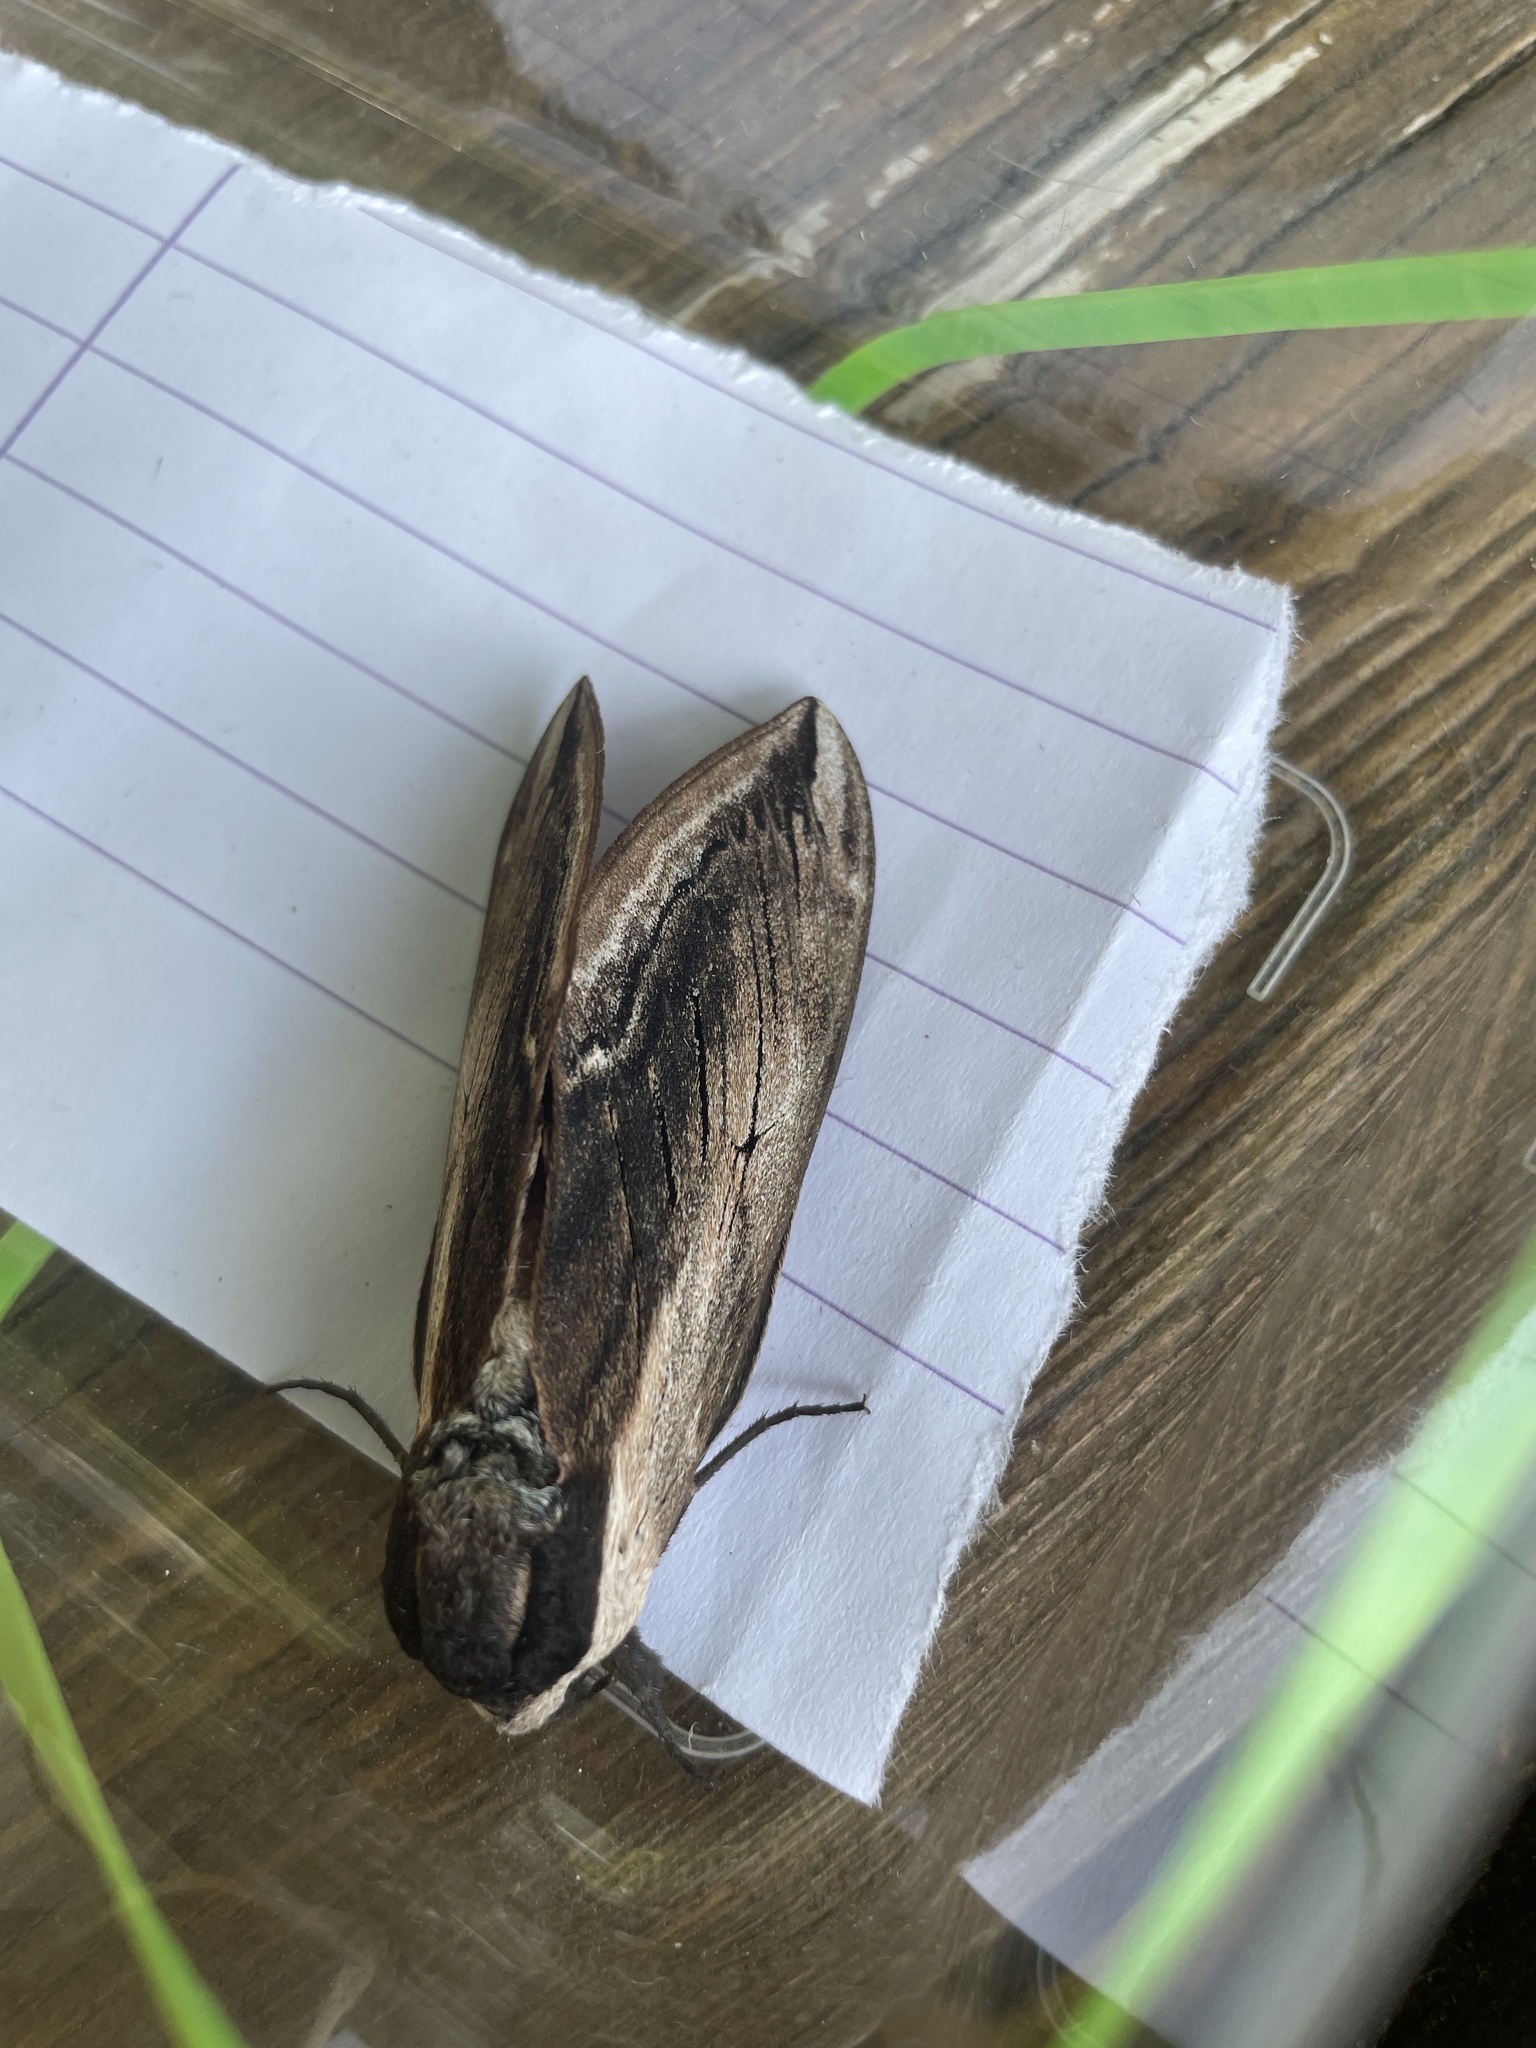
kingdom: Animalia
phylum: Arthropoda
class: Insecta
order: Lepidoptera
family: Sphingidae
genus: Sphinx
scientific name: Sphinx ligustri
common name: Privet hawk-moth
